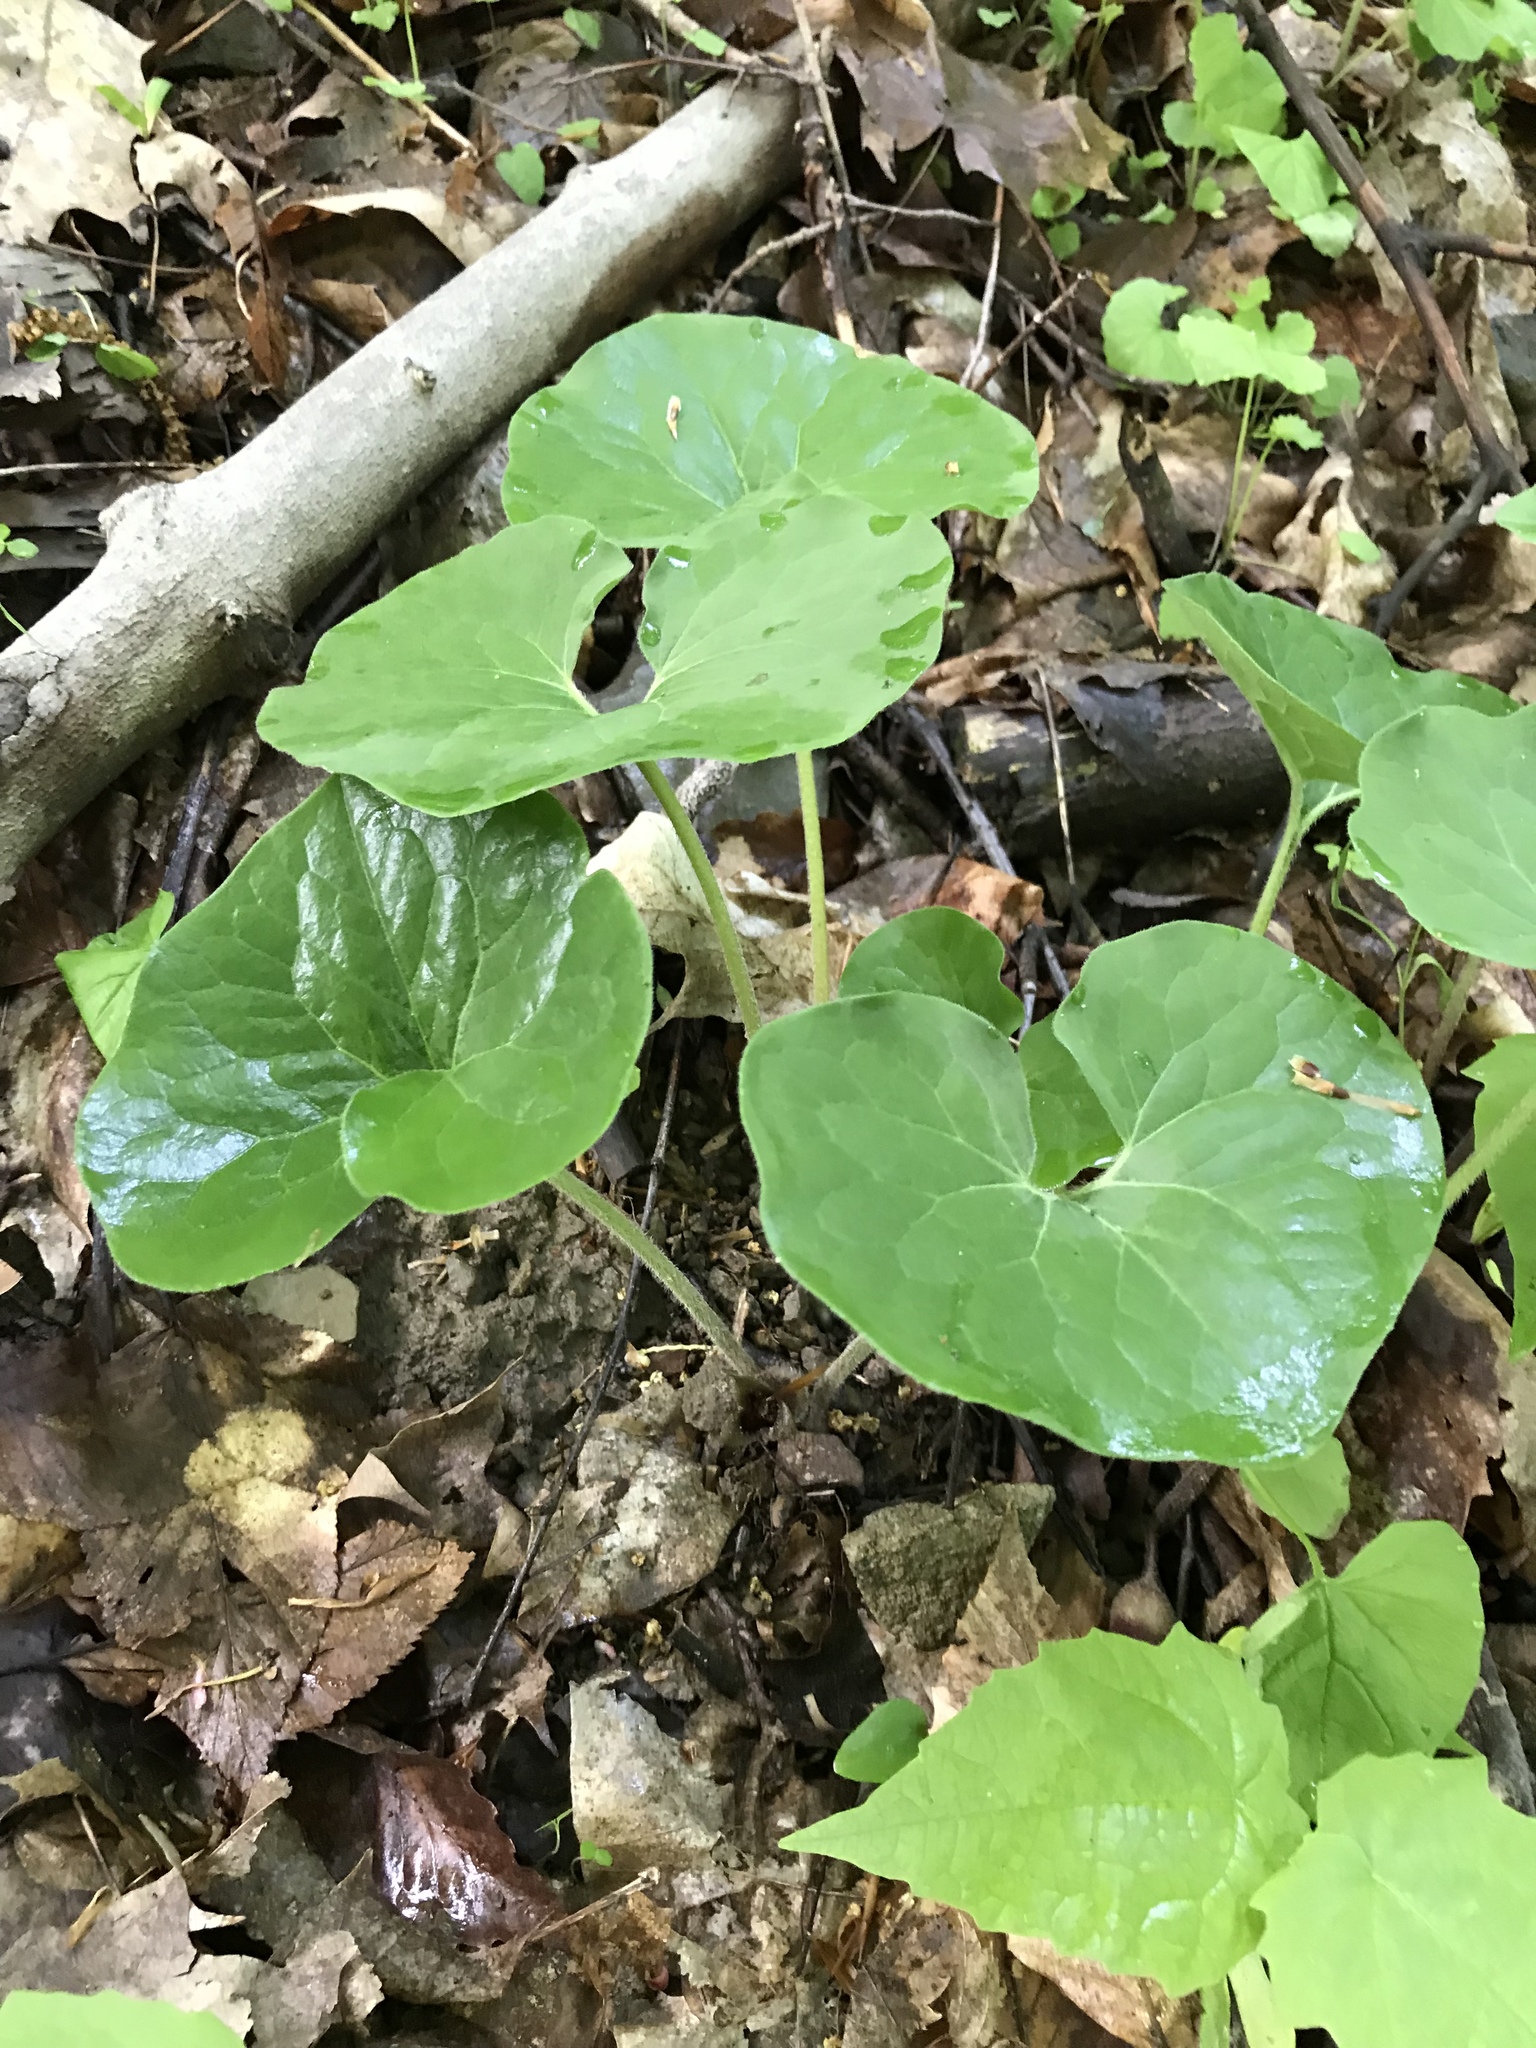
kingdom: Plantae
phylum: Tracheophyta
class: Magnoliopsida
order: Piperales
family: Aristolochiaceae
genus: Asarum
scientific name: Asarum canadense
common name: Wild ginger
